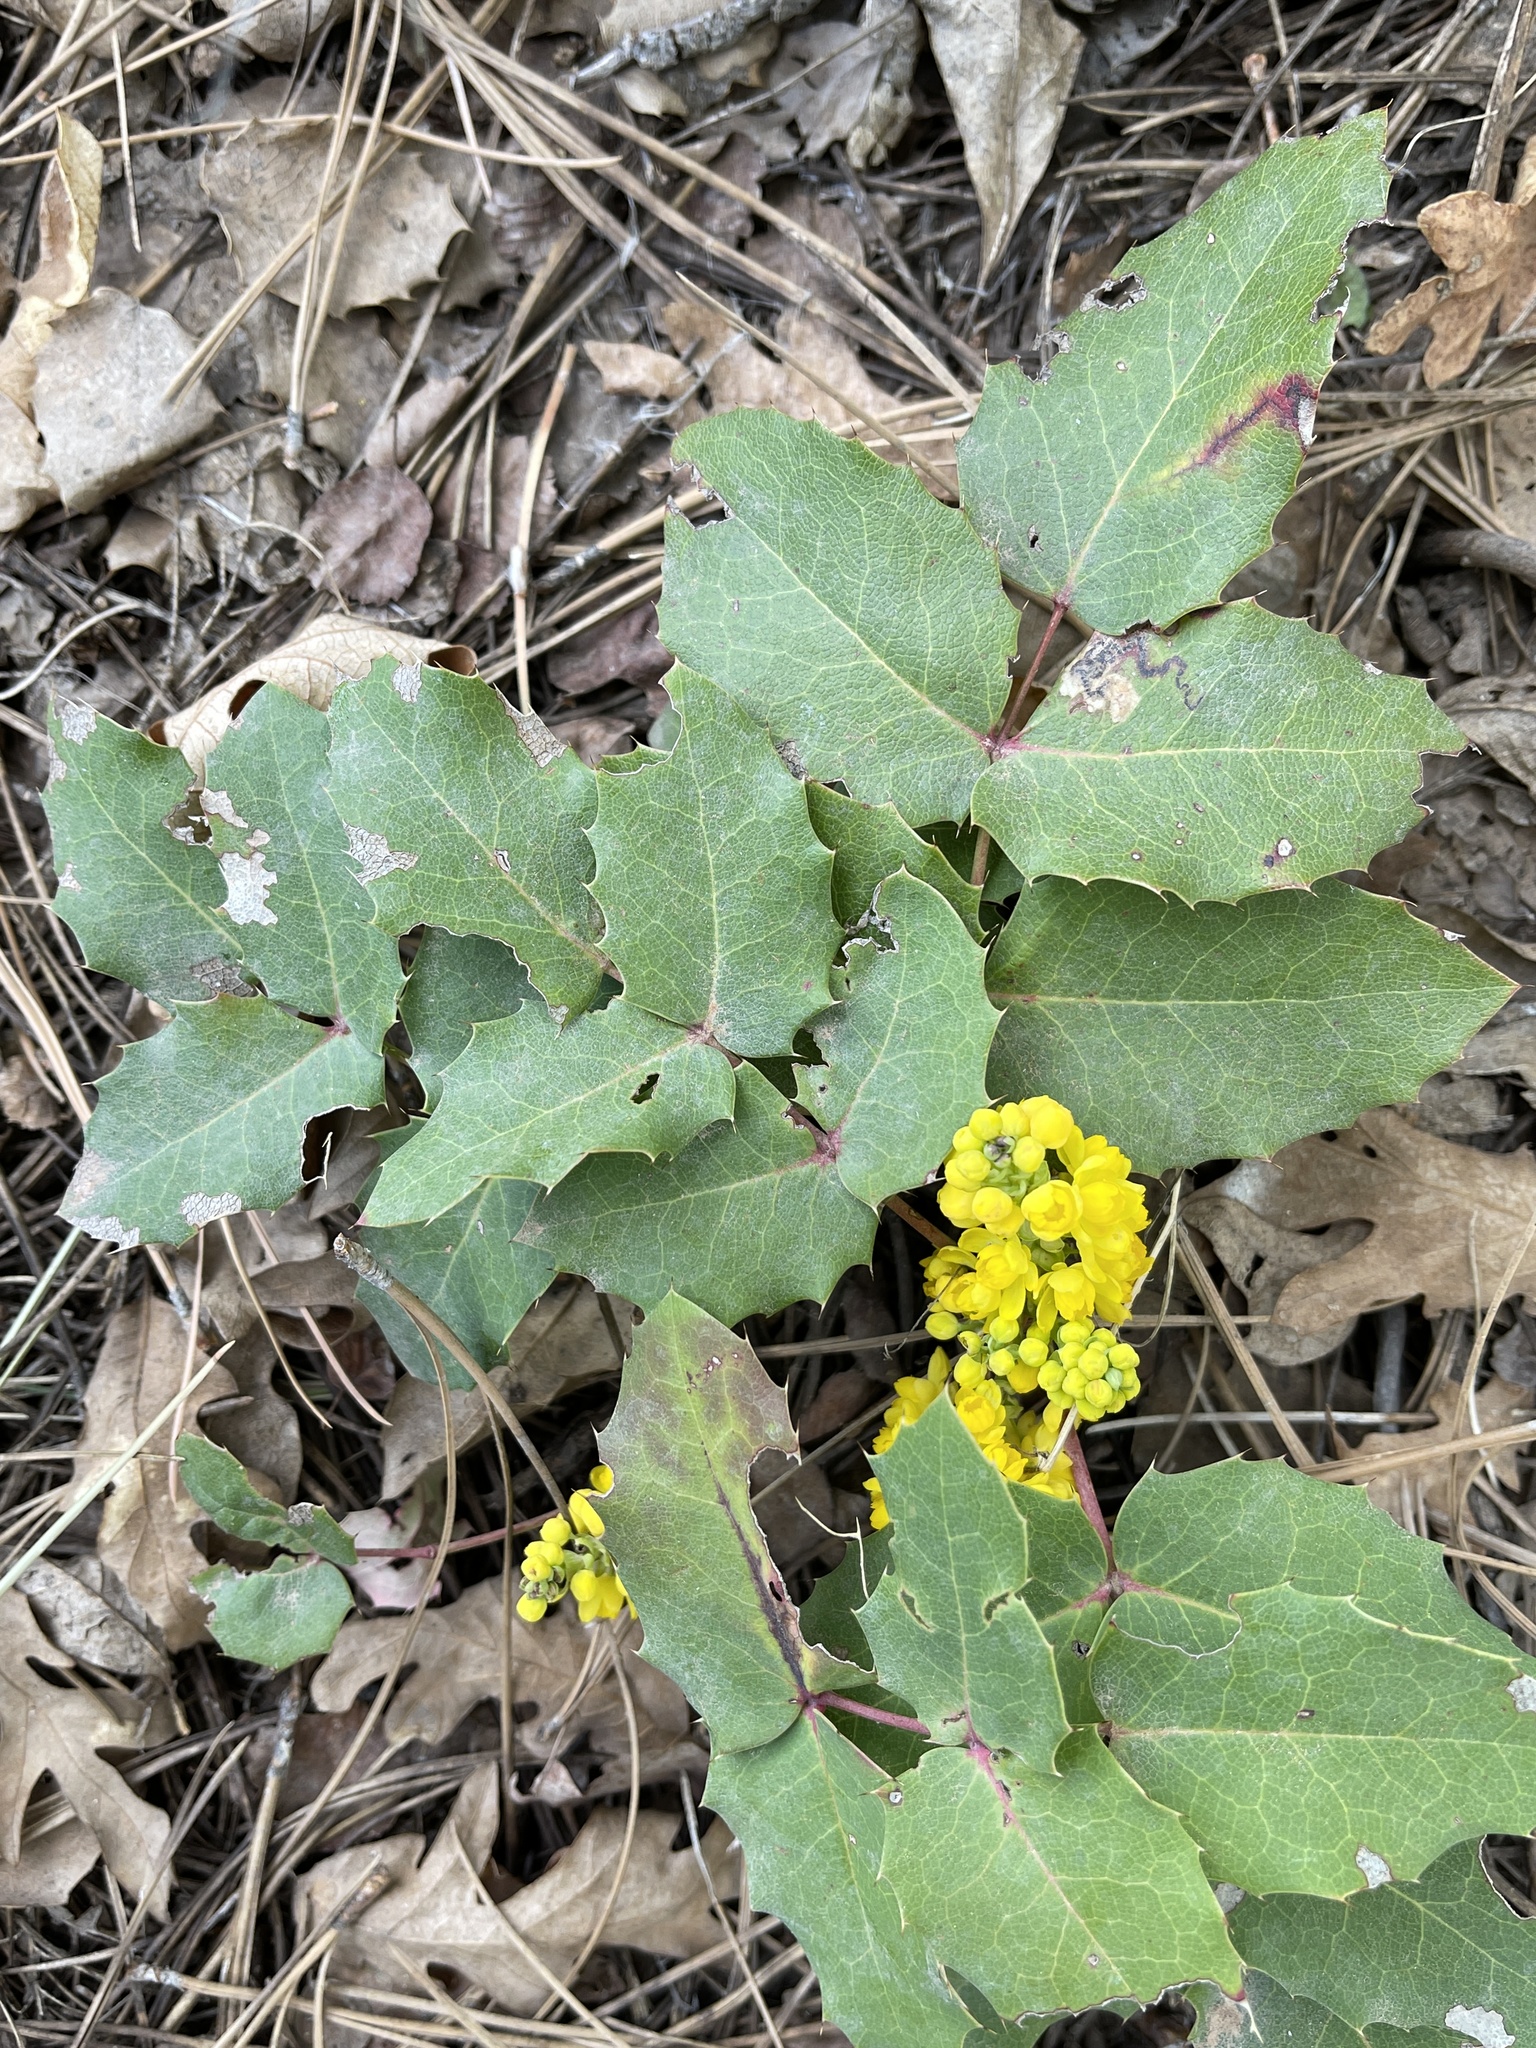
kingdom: Plantae
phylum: Tracheophyta
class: Magnoliopsida
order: Ranunculales
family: Berberidaceae
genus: Mahonia
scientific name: Mahonia repens
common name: Creeping oregon-grape
